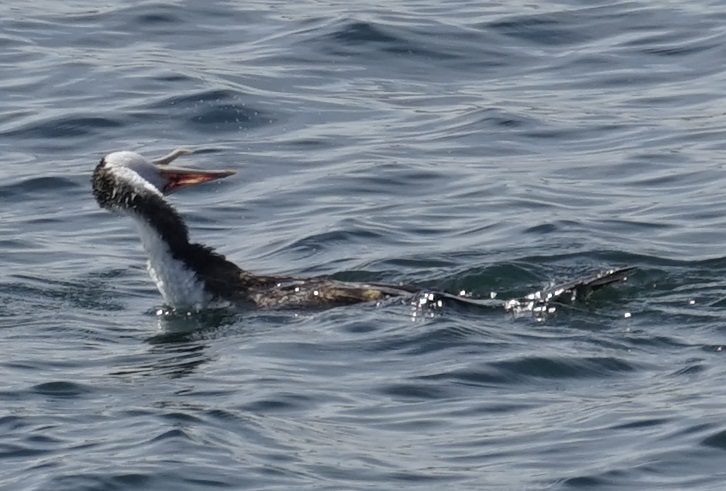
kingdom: Animalia
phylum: Chordata
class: Aves
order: Suliformes
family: Phalacrocoracidae
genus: Phalacrocorax
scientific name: Phalacrocorax varius
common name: Pied cormorant
